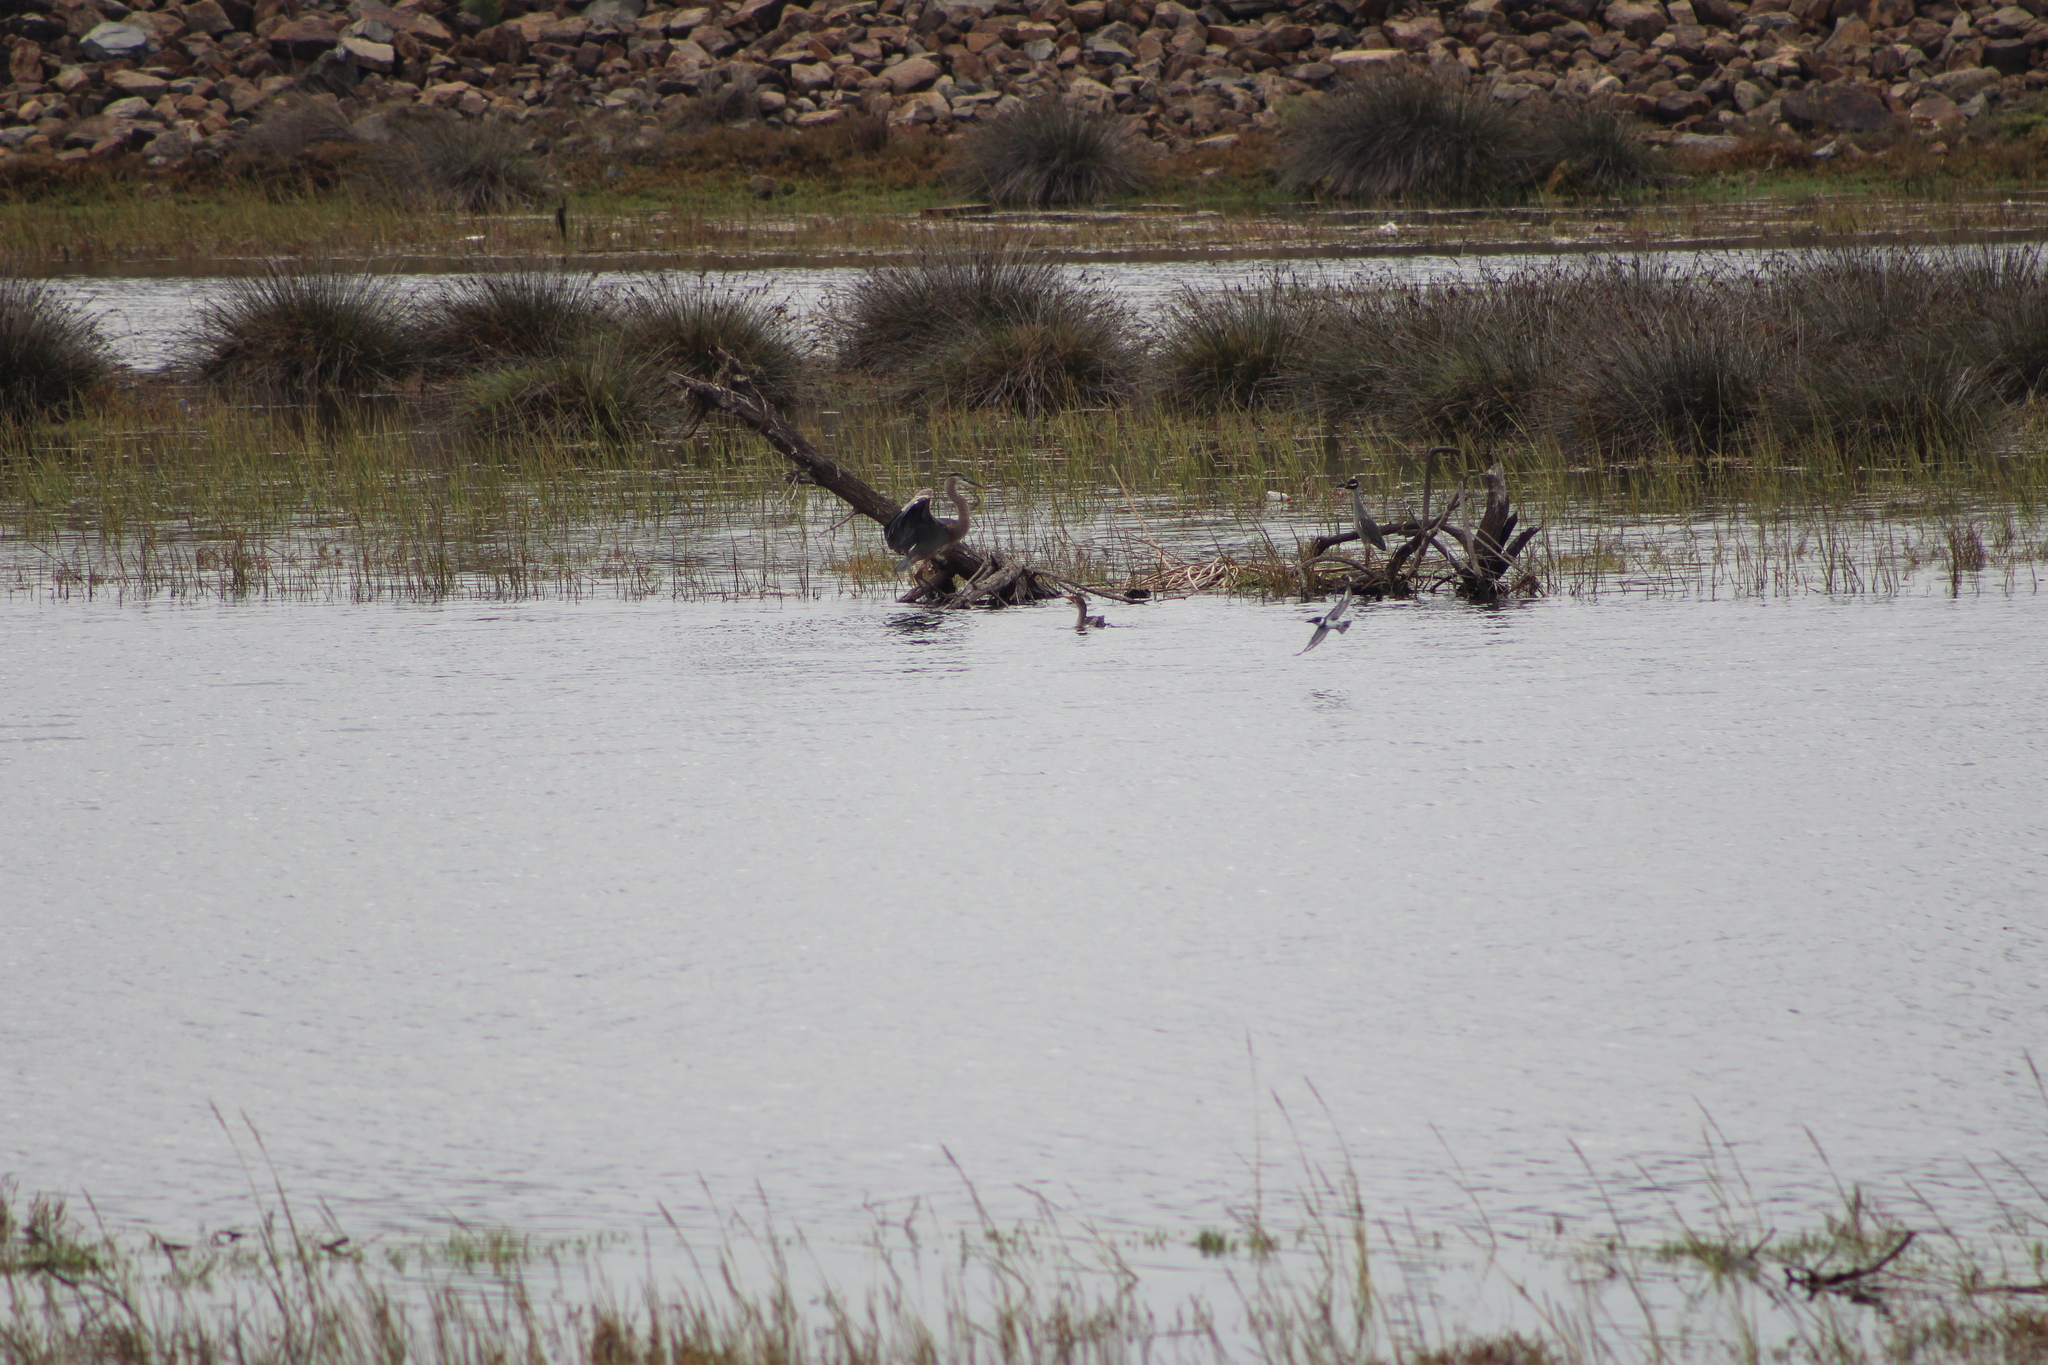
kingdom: Animalia
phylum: Chordata
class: Aves
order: Pelecaniformes
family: Ardeidae
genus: Ardea
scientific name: Ardea herodias
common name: Great blue heron
